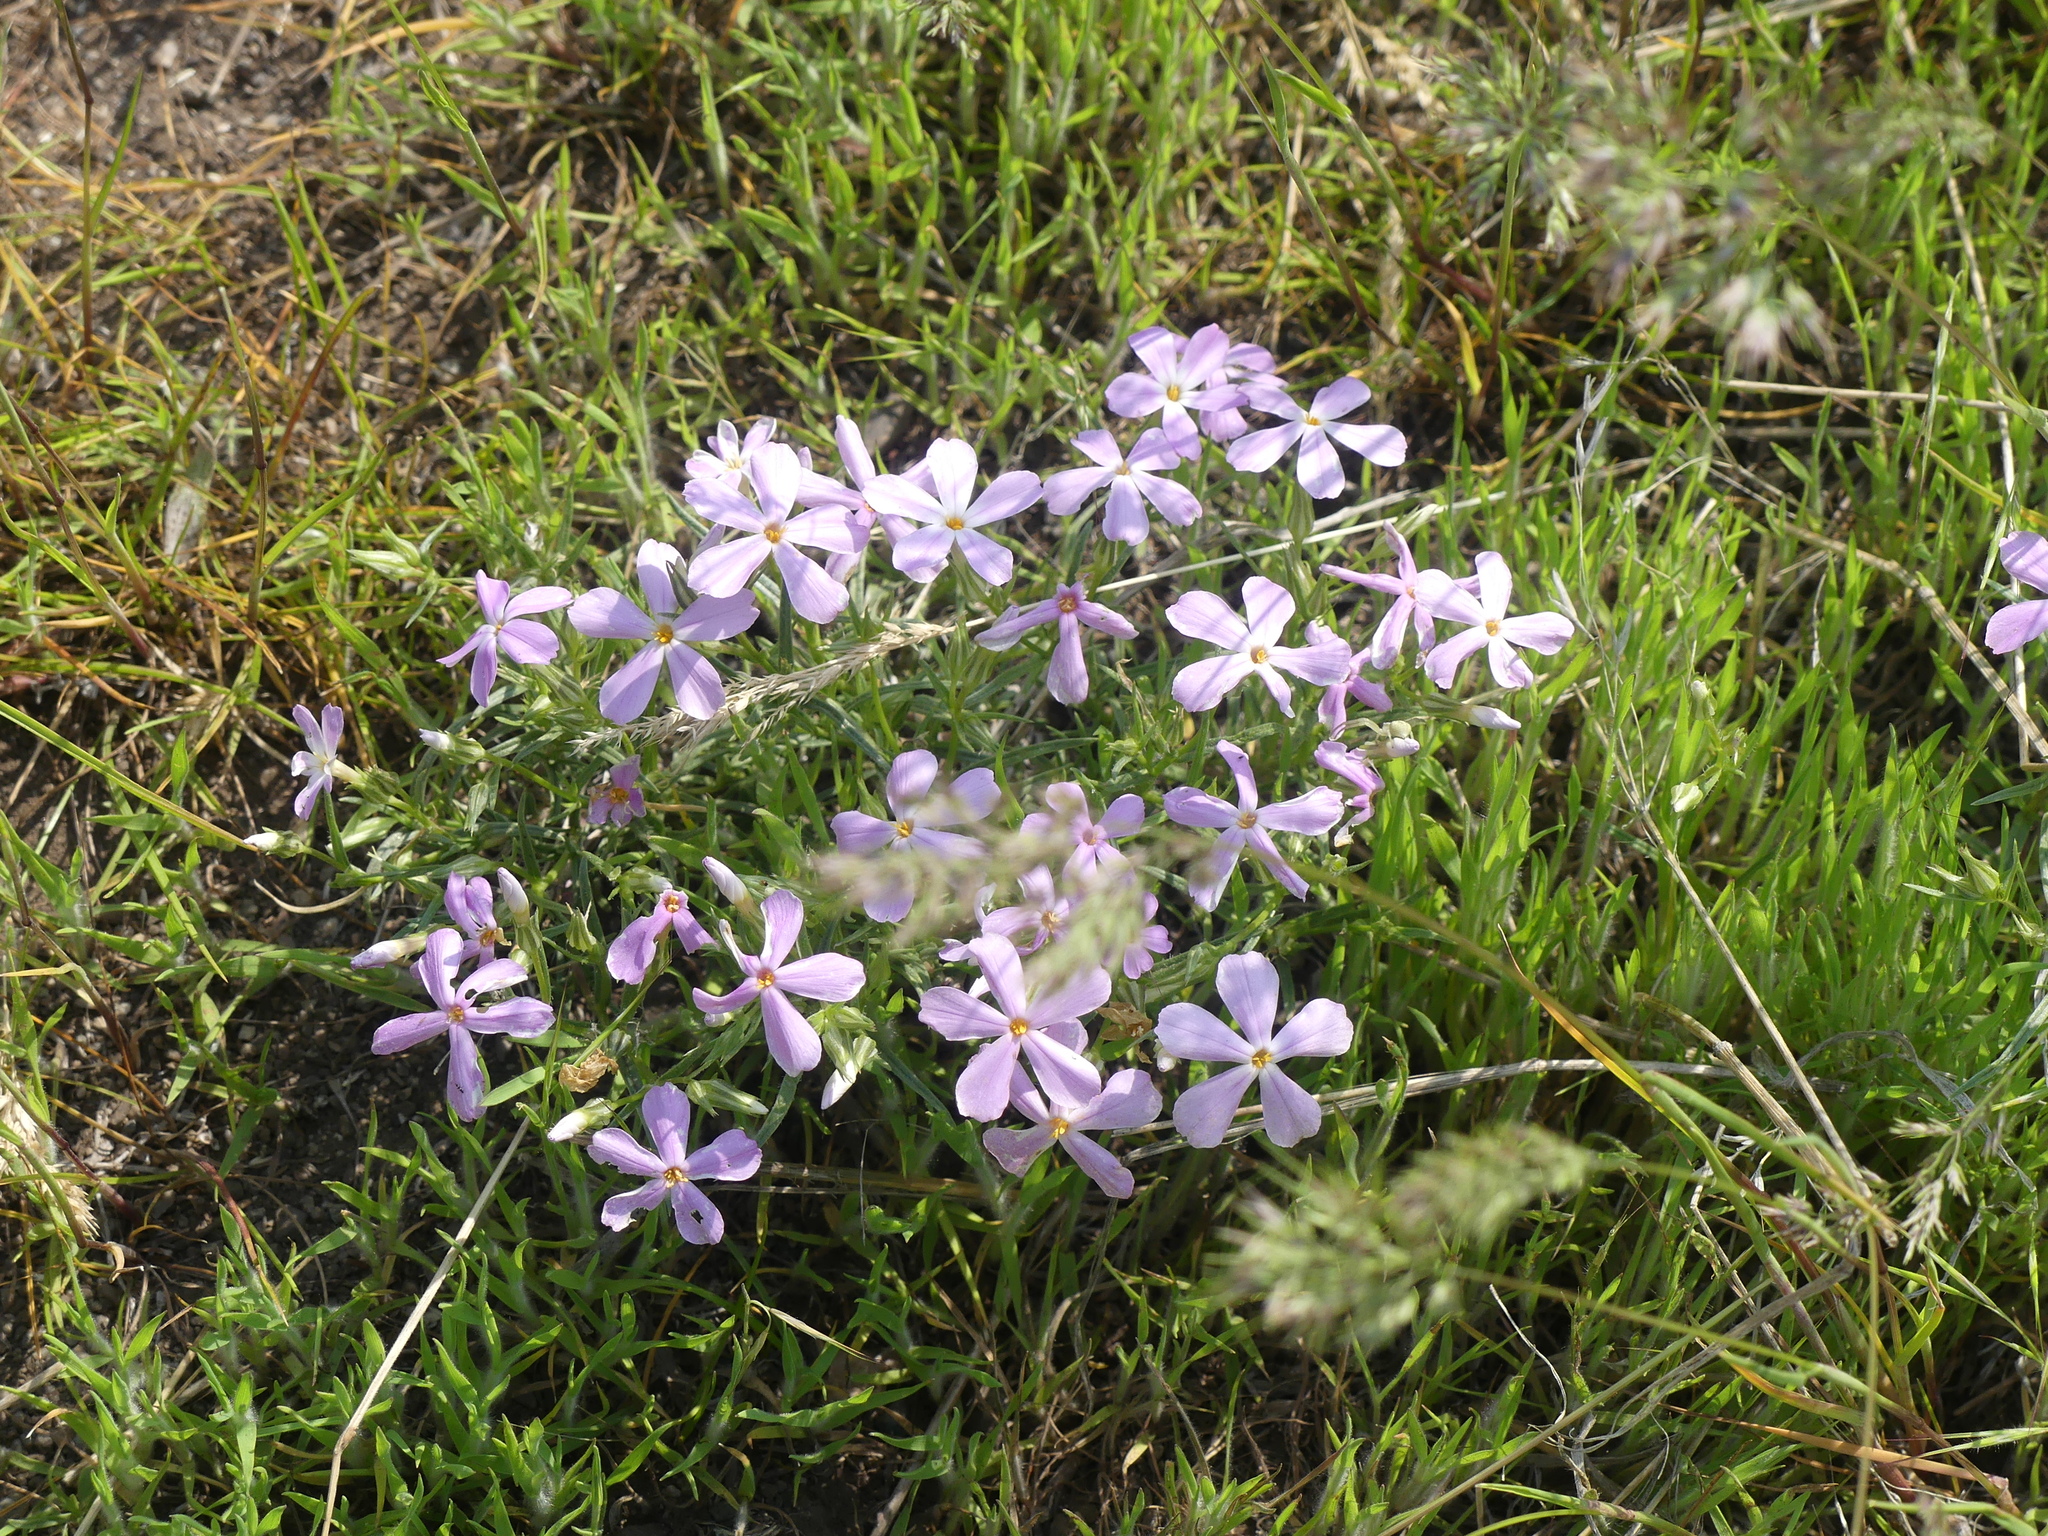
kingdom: Plantae
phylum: Tracheophyta
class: Magnoliopsida
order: Ericales
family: Polemoniaceae
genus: Phlox
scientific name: Phlox longifolia
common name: Longleaf phlox
